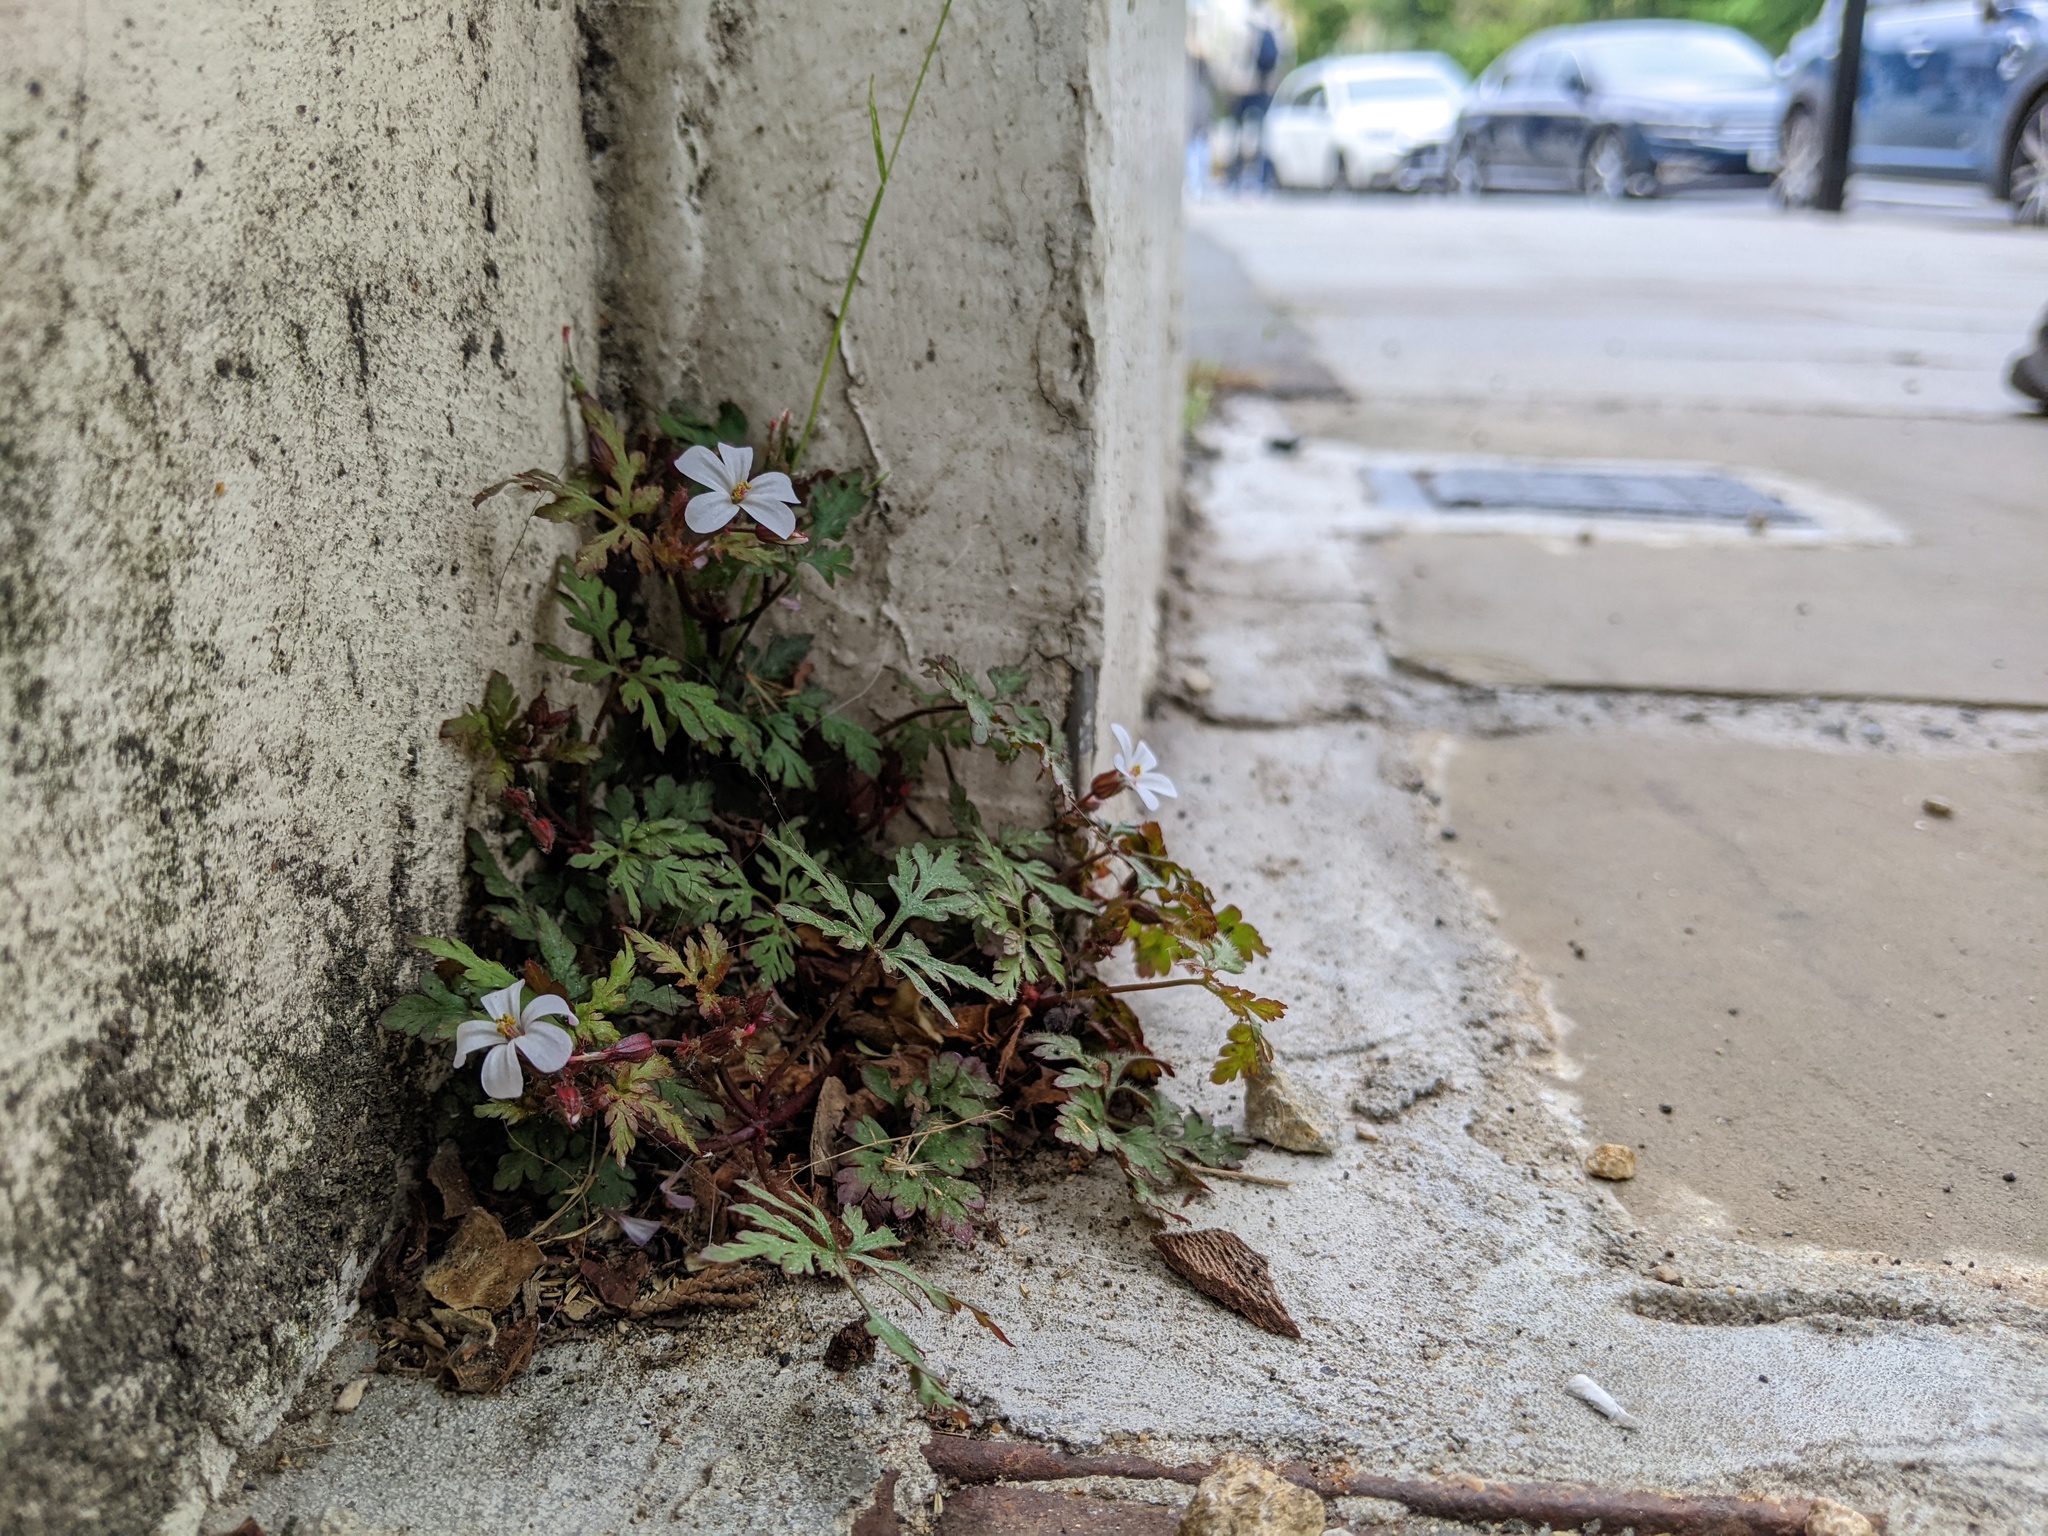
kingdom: Plantae
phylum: Tracheophyta
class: Magnoliopsida
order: Geraniales
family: Geraniaceae
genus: Geranium
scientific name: Geranium robertianum
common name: Herb-robert
